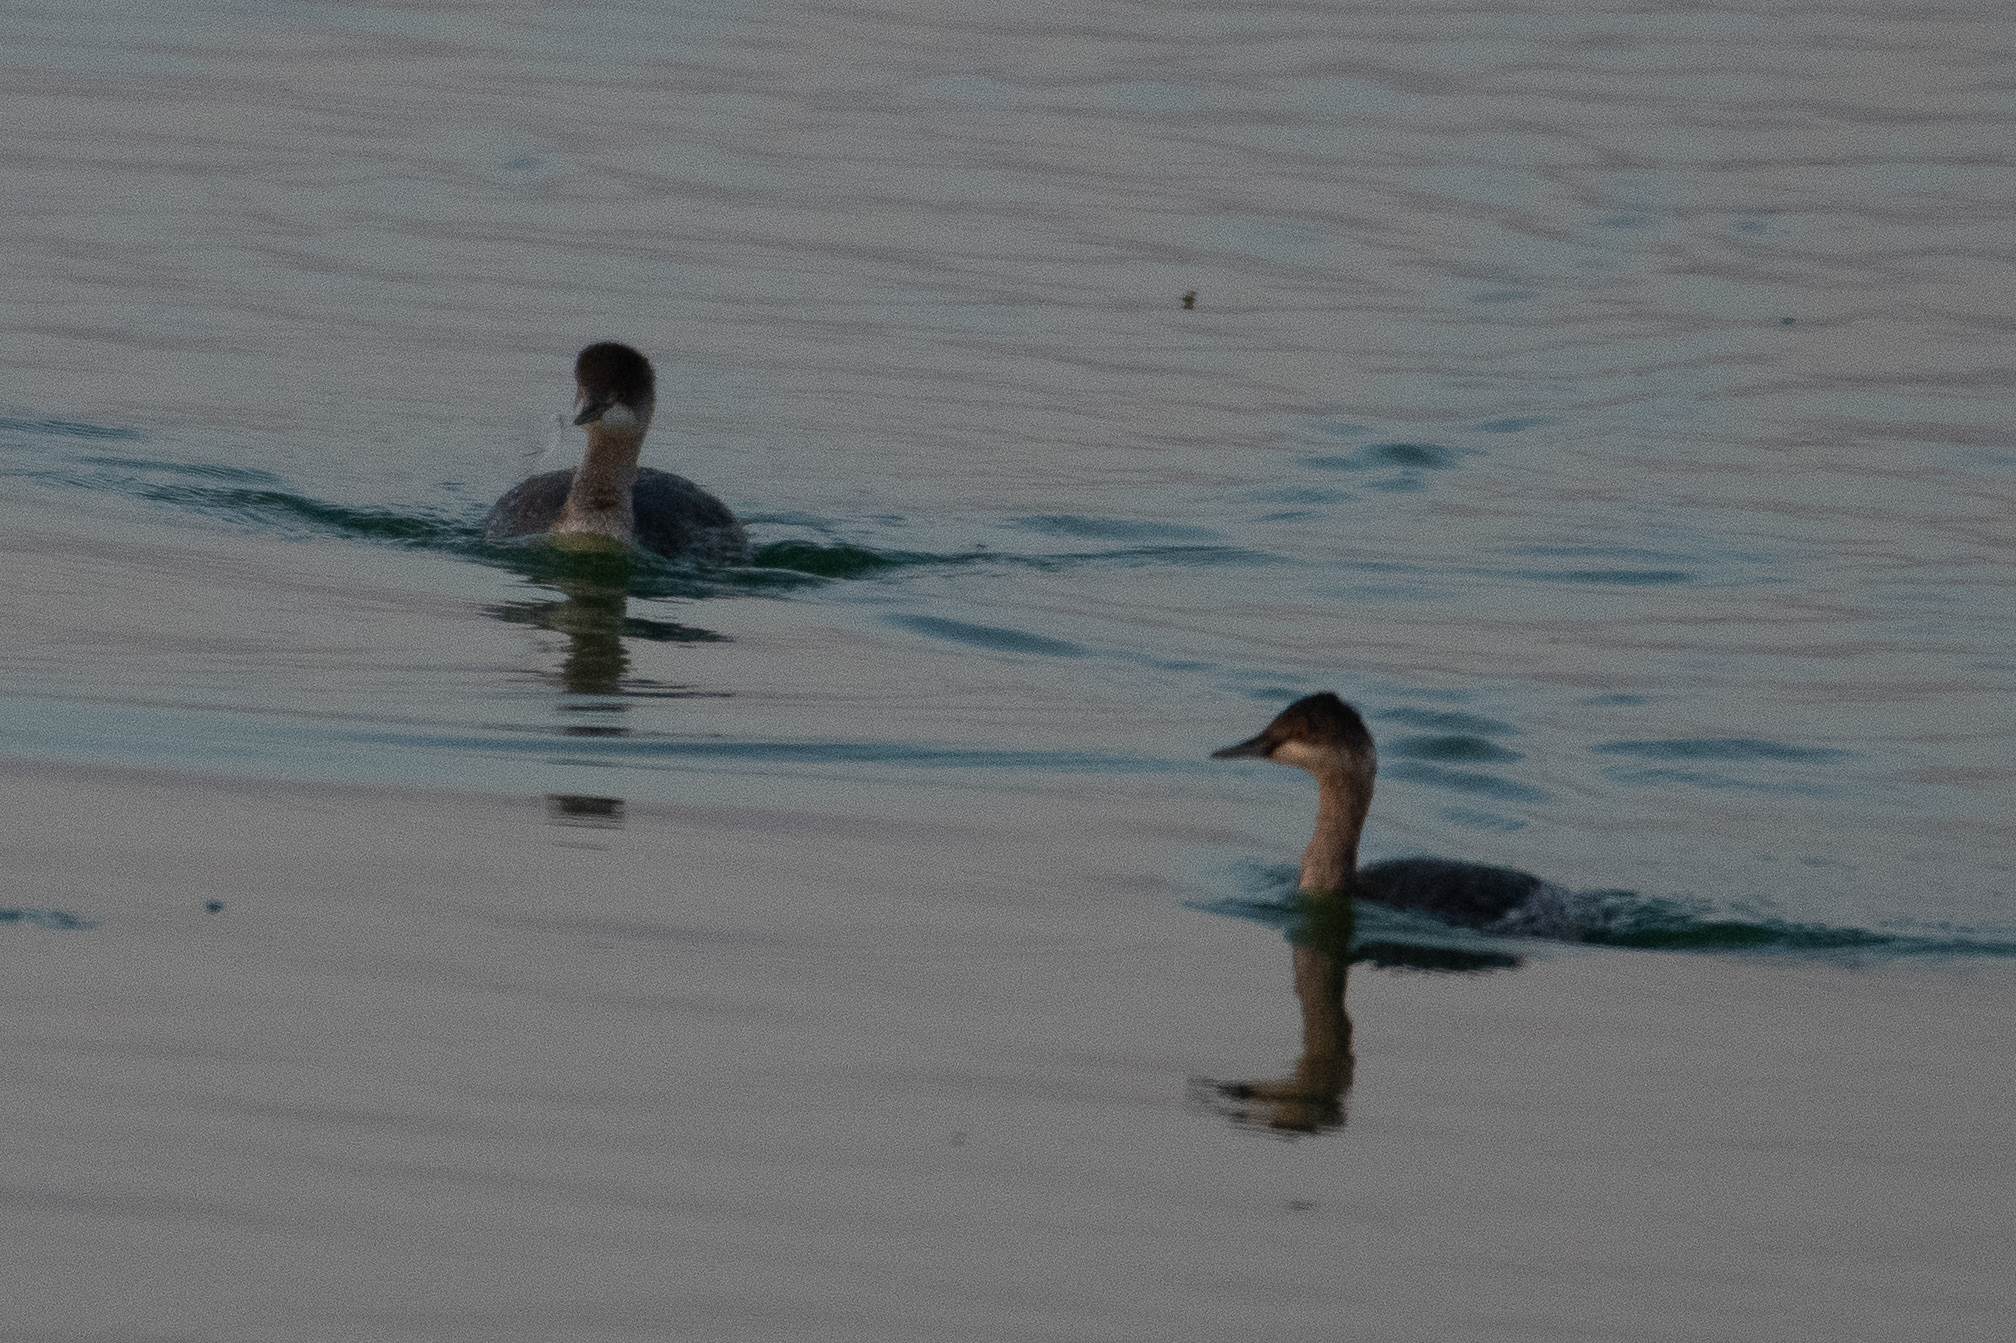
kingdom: Animalia
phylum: Chordata
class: Aves
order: Podicipediformes
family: Podicipedidae
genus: Podiceps
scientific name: Podiceps nigricollis
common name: Black-necked grebe
